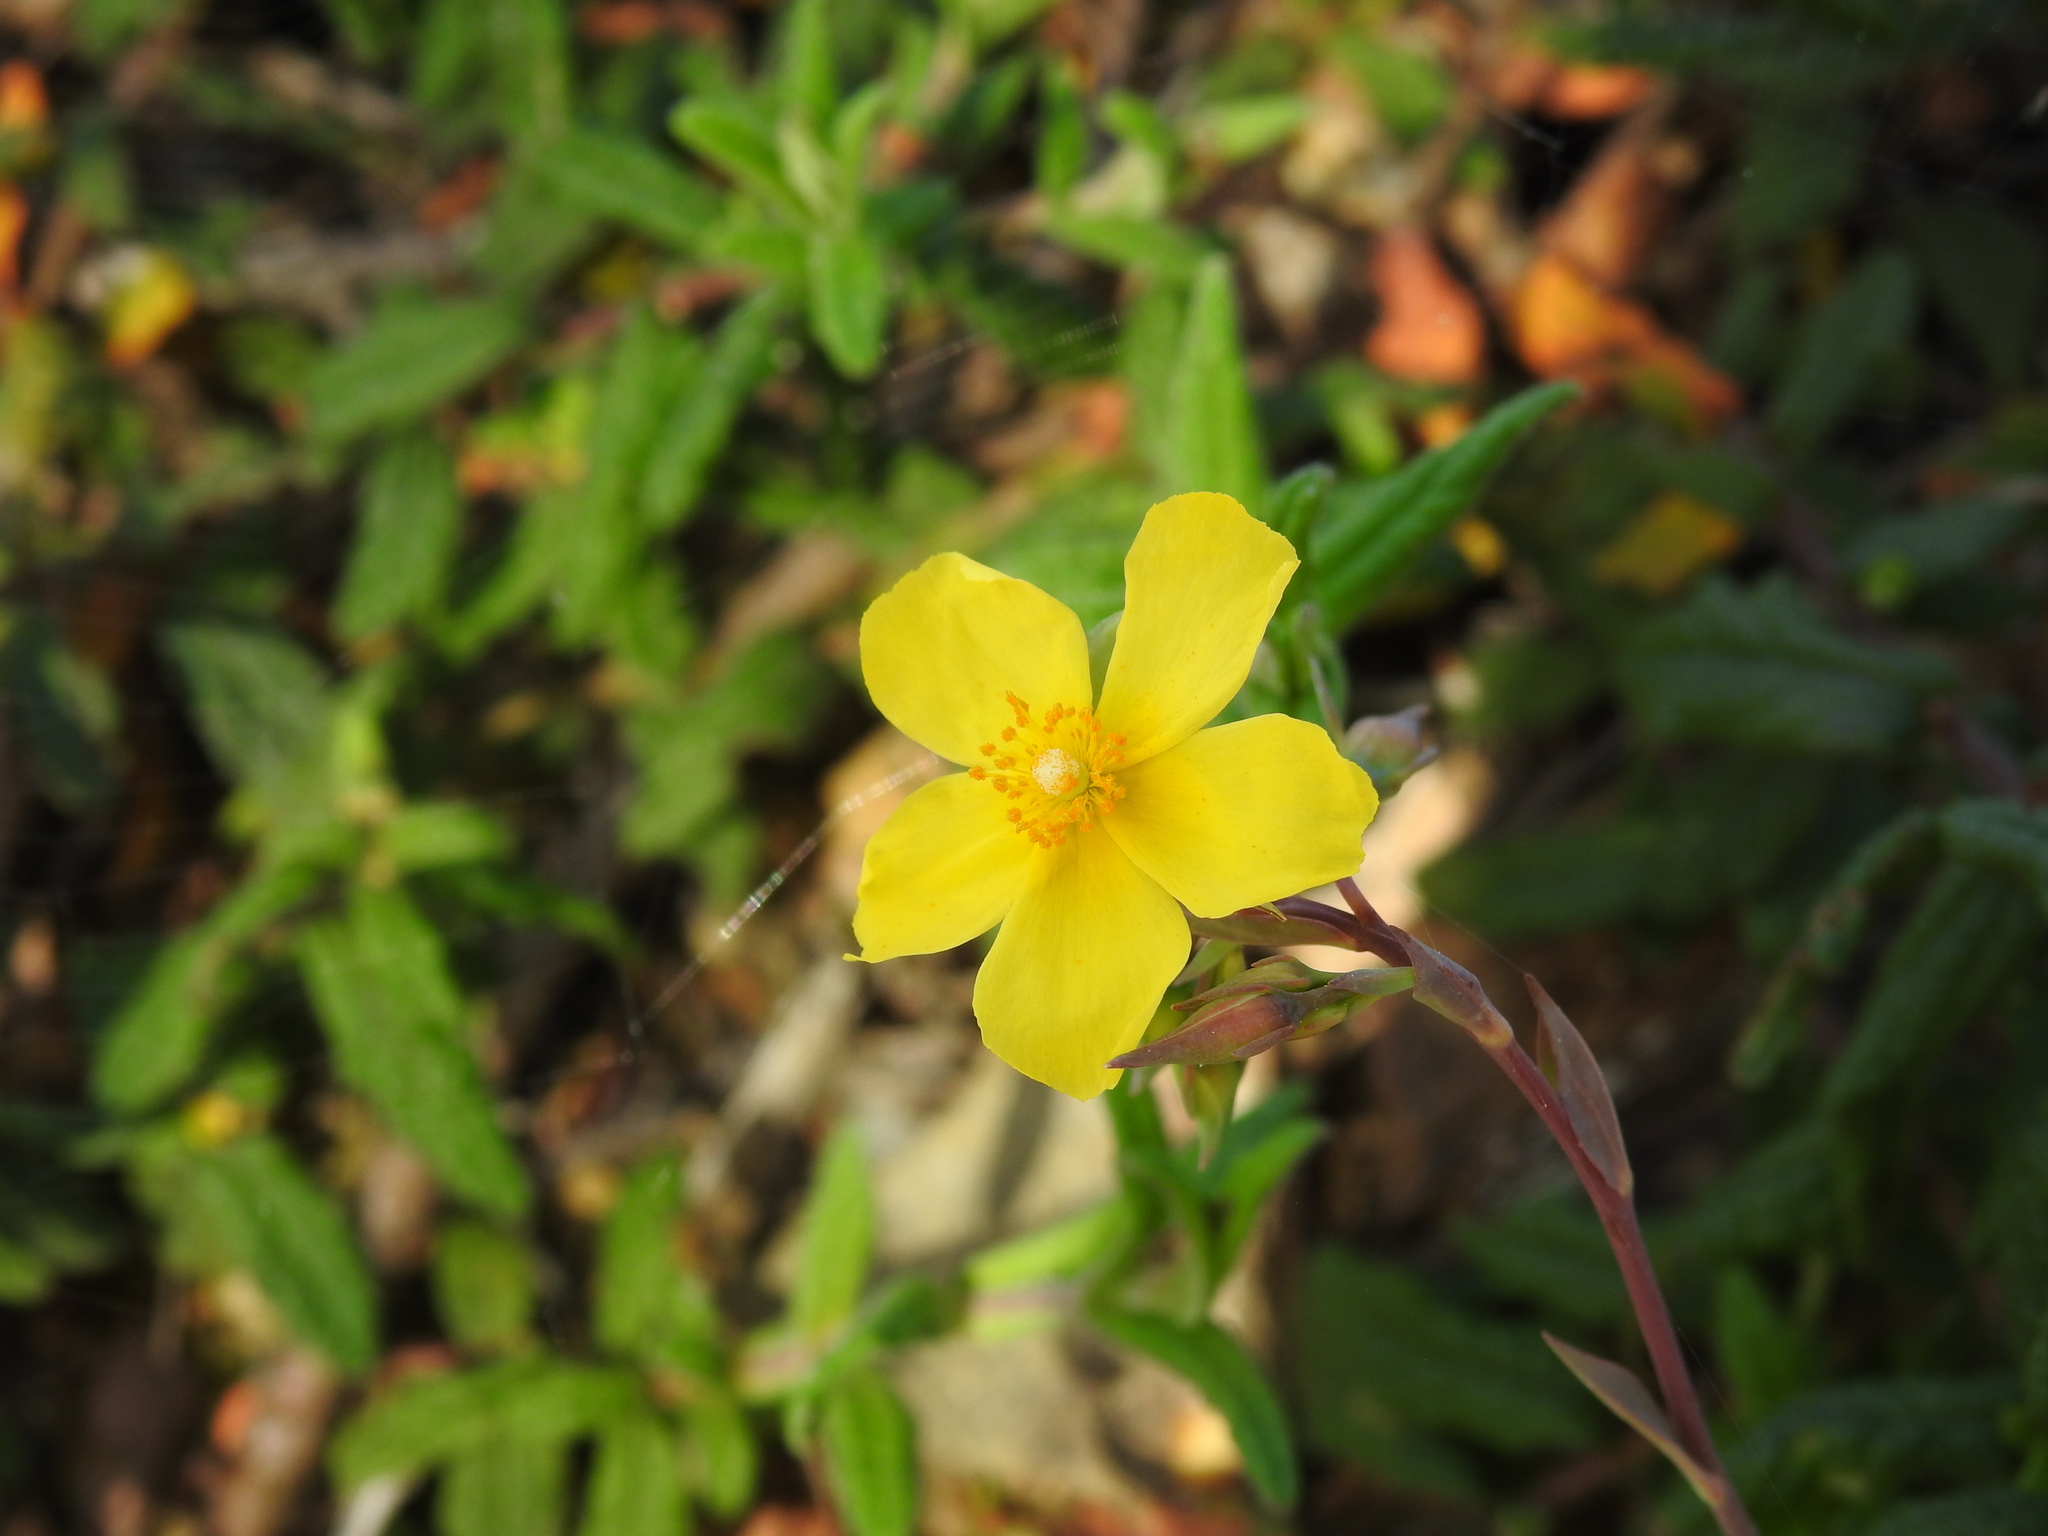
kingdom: Plantae
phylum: Tracheophyta
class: Magnoliopsida
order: Malvales
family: Cistaceae
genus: Tuberaria
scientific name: Tuberaria lignosa
